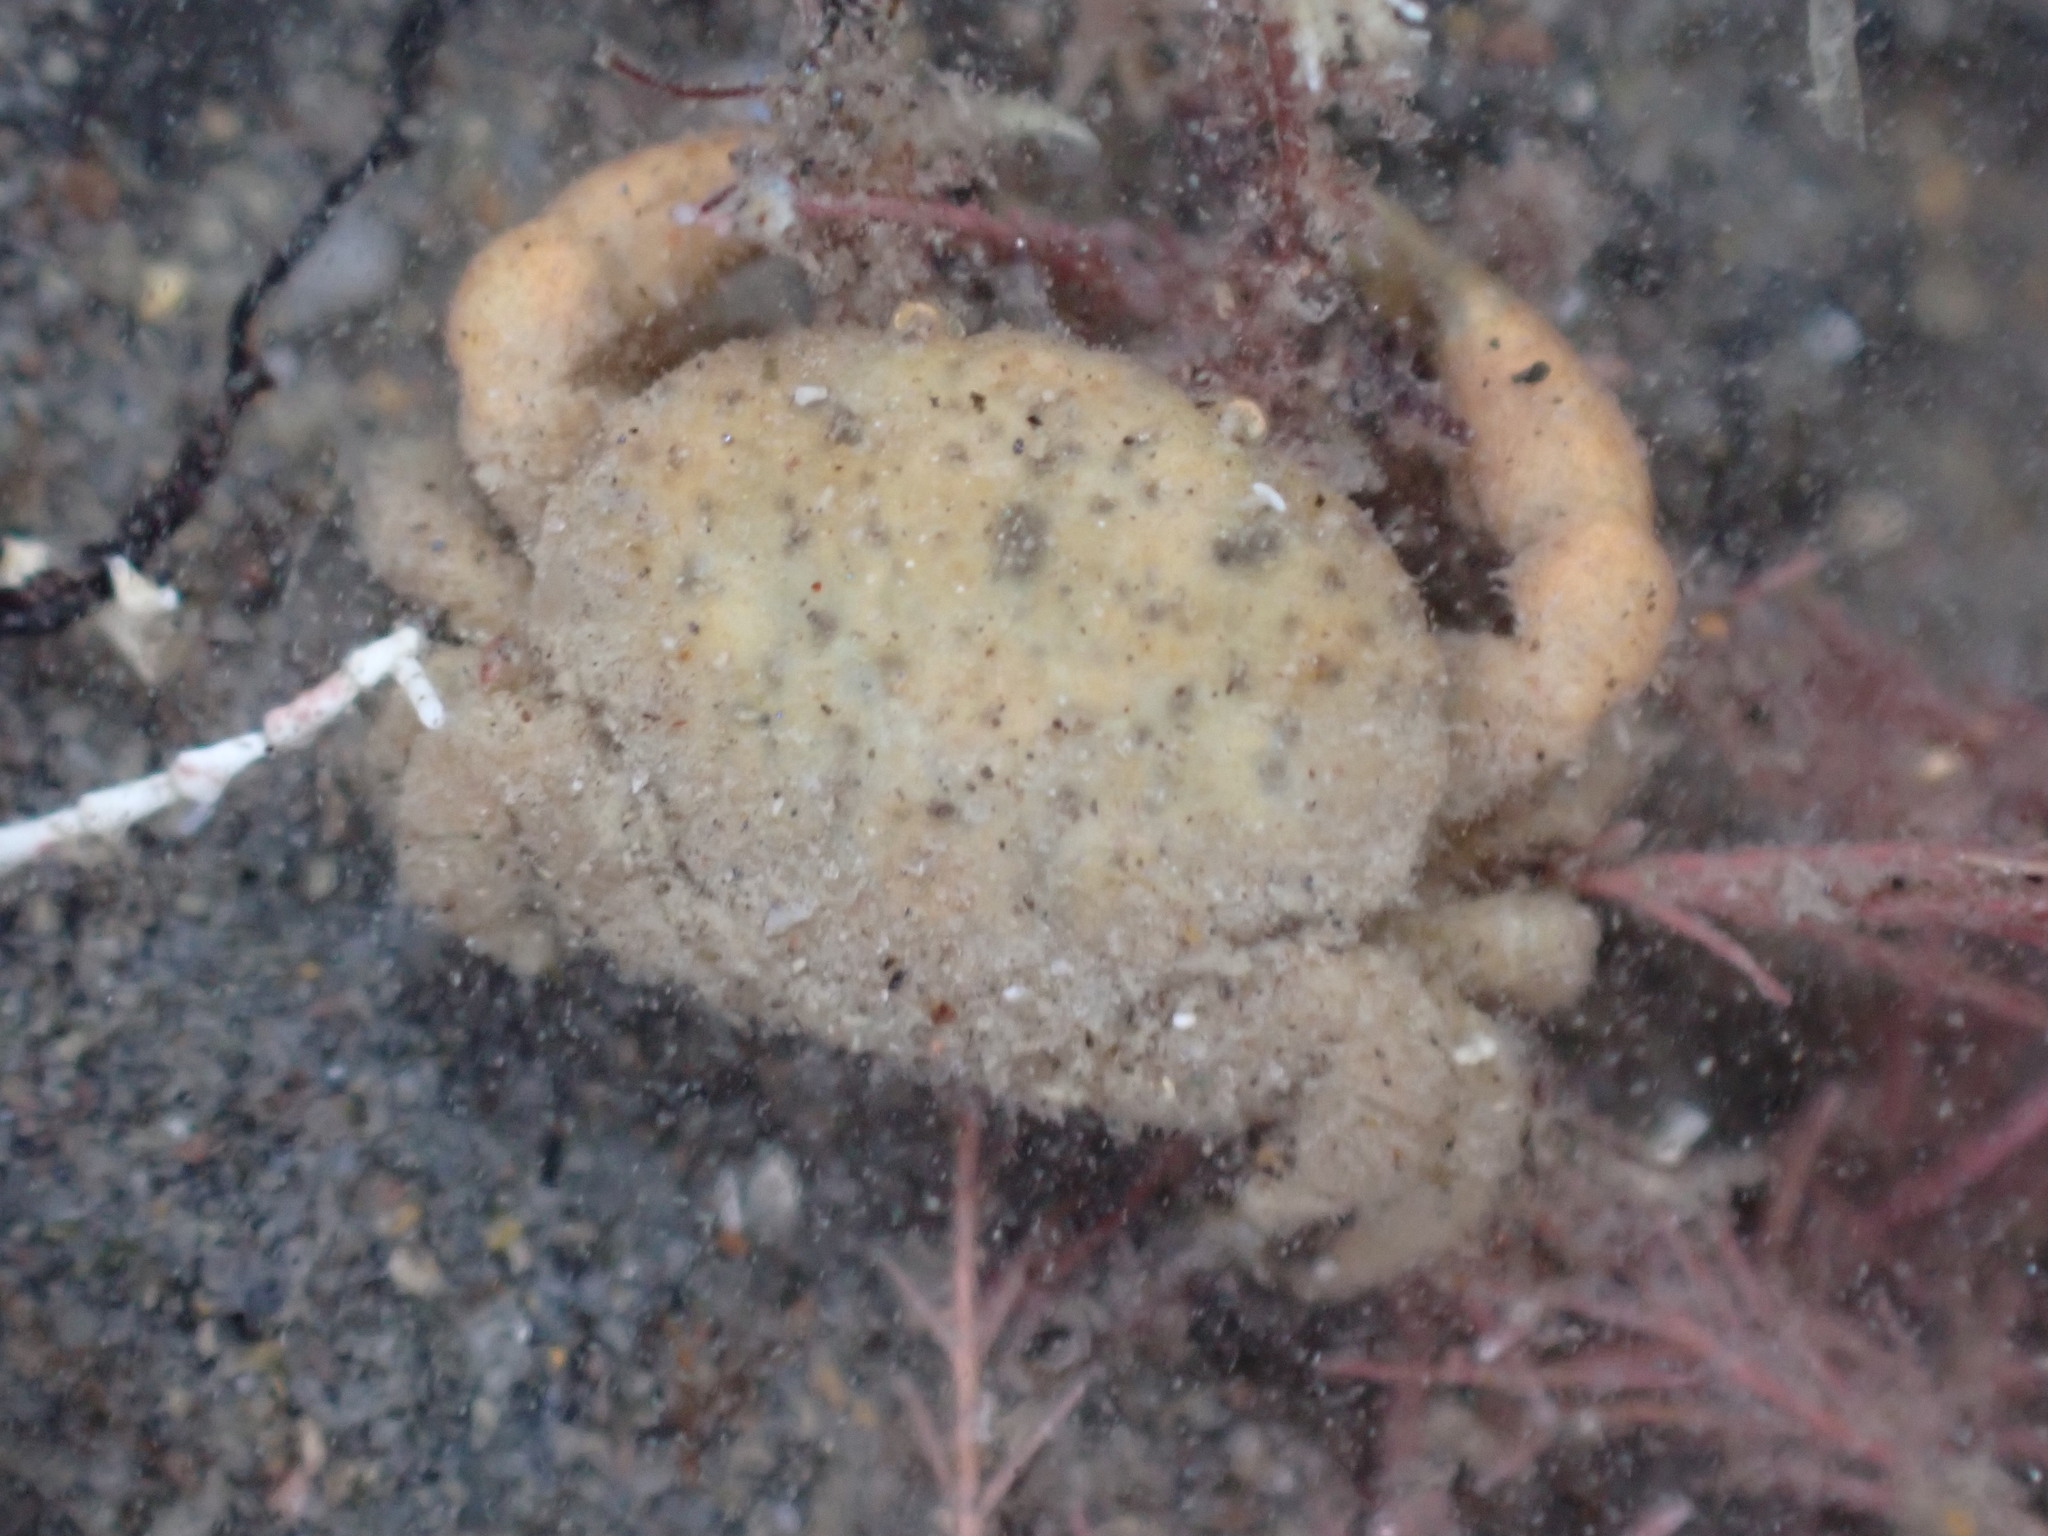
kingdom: Animalia
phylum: Arthropoda
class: Malacostraca
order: Decapoda
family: Heteroziidae
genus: Heterozius
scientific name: Heterozius rotundifrons
